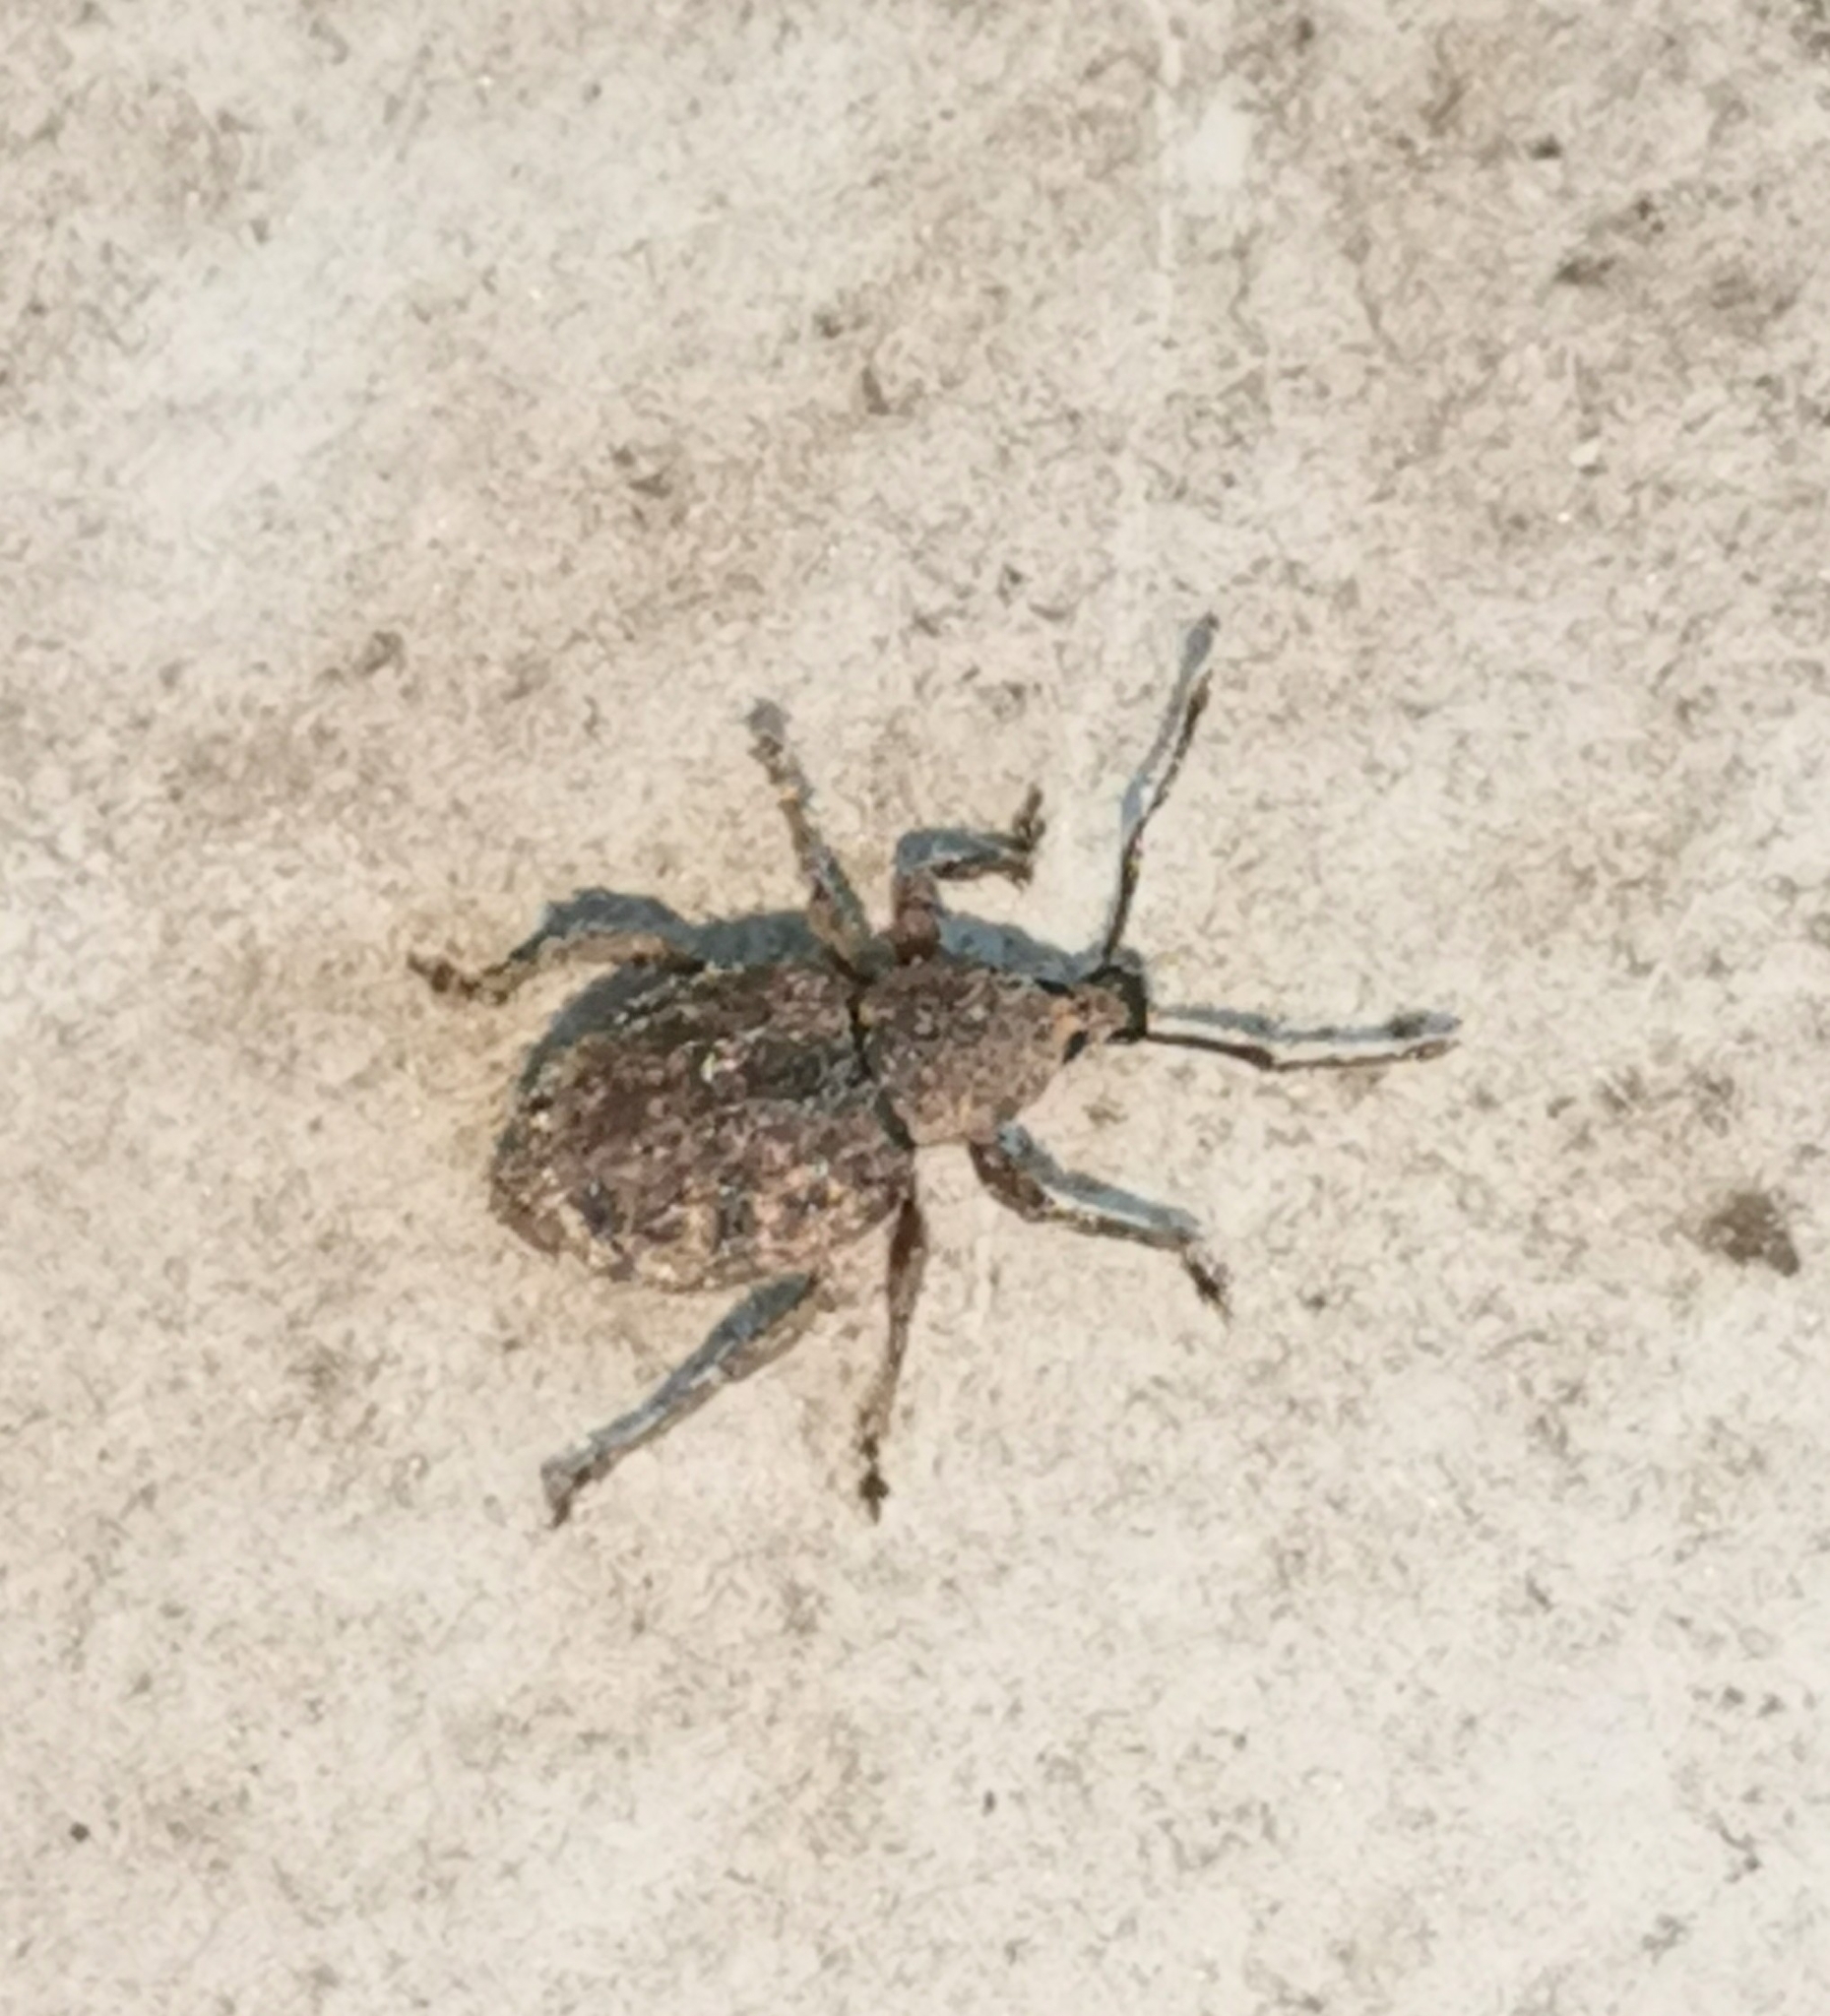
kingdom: Animalia
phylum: Arthropoda
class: Insecta
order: Coleoptera
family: Curculionidae
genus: Otiorhynchus
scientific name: Otiorhynchus carinatopunctatus
